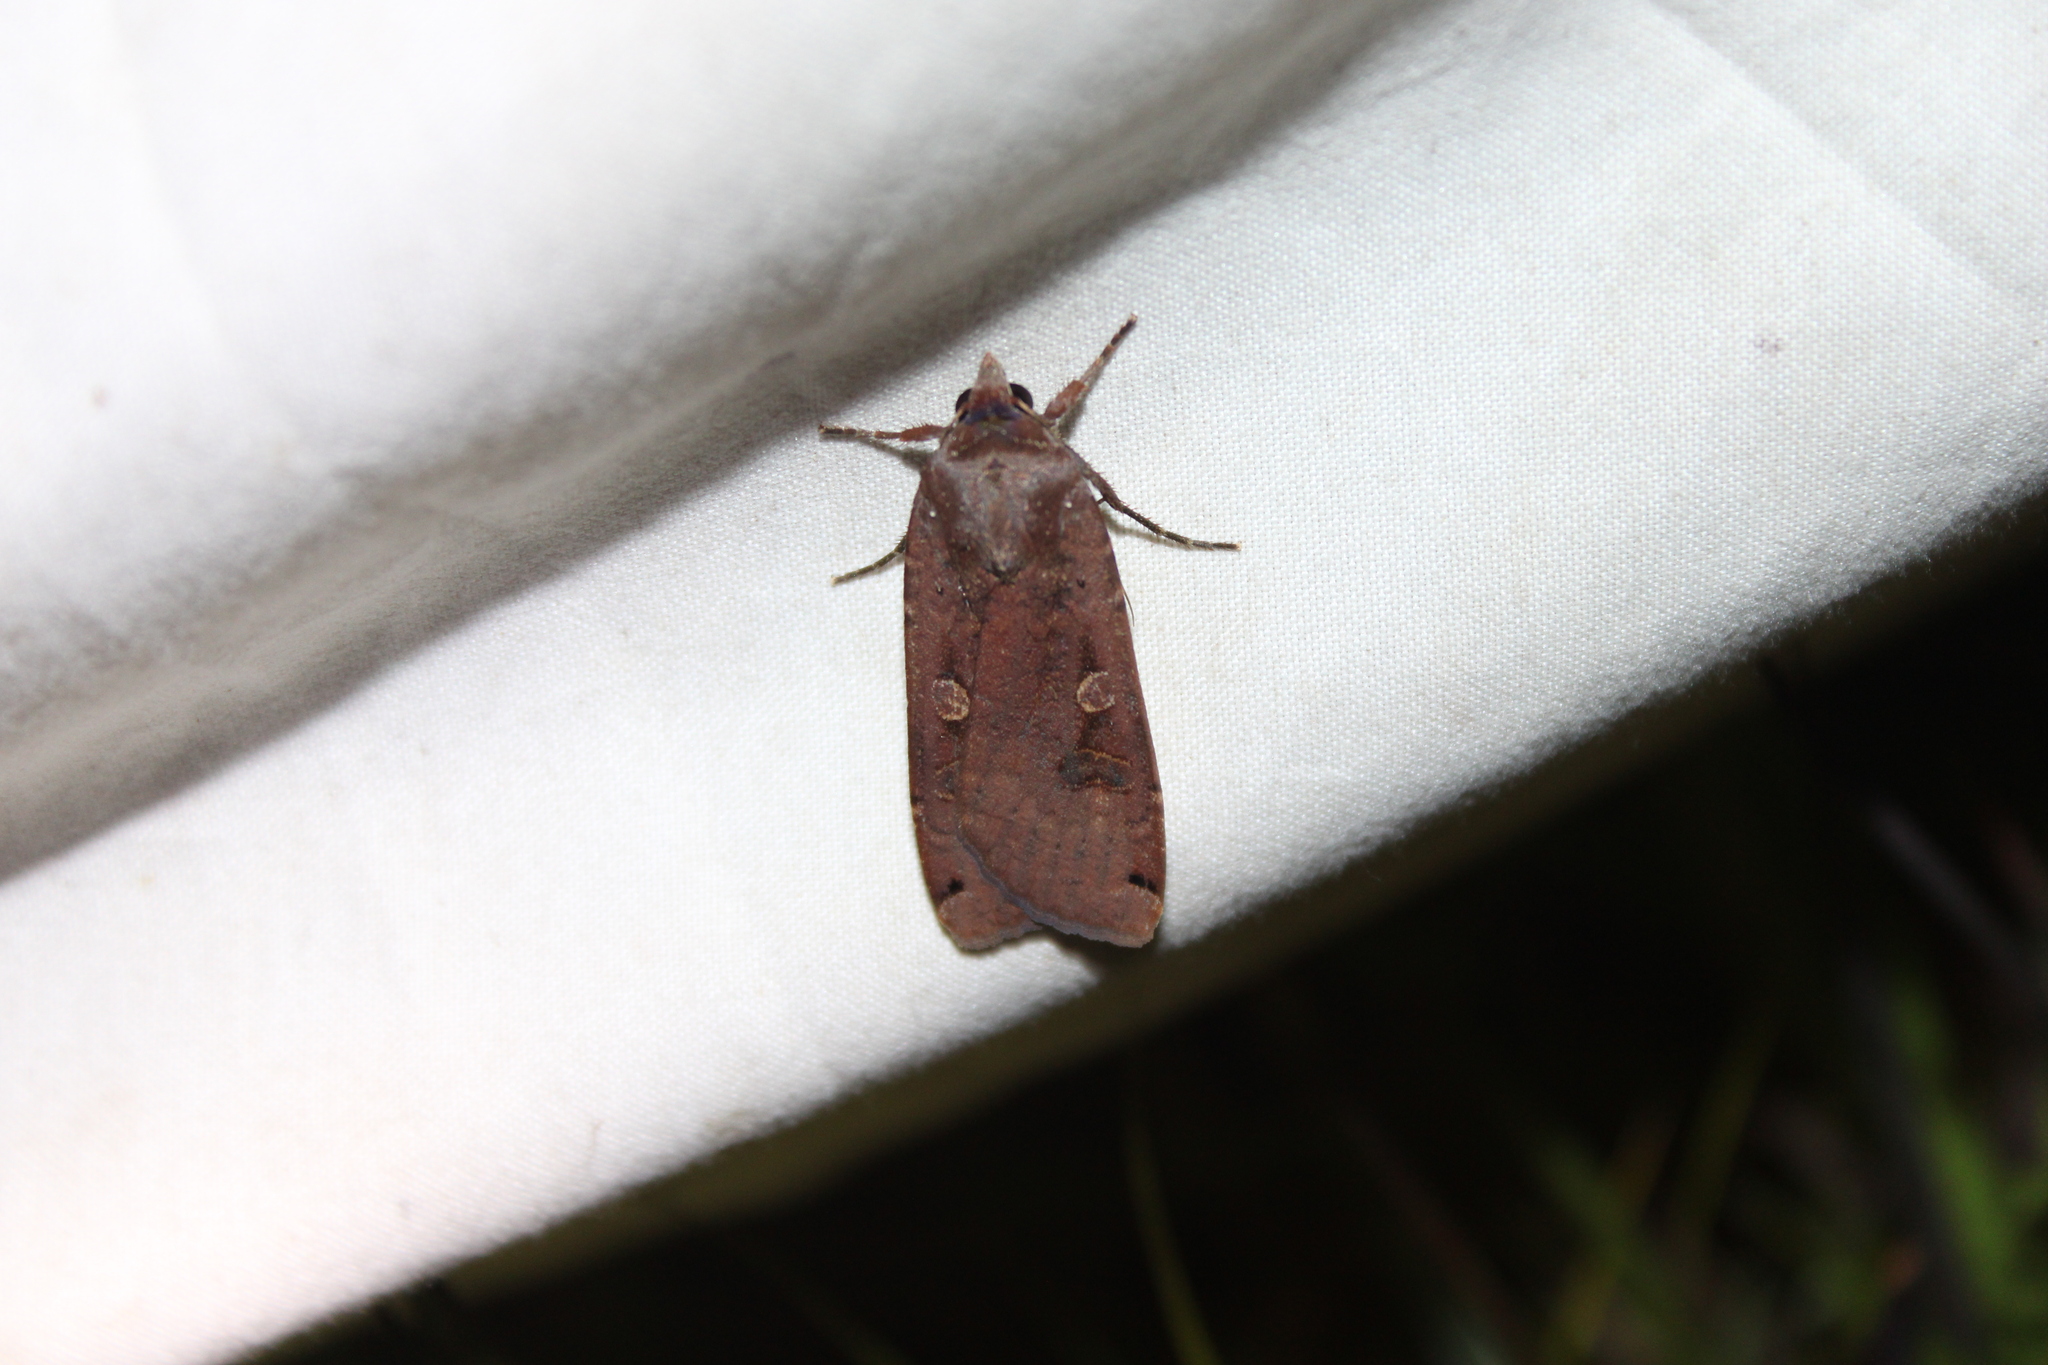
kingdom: Animalia
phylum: Arthropoda
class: Insecta
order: Lepidoptera
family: Noctuidae
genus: Noctua
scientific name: Noctua pronuba
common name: Large yellow underwing
